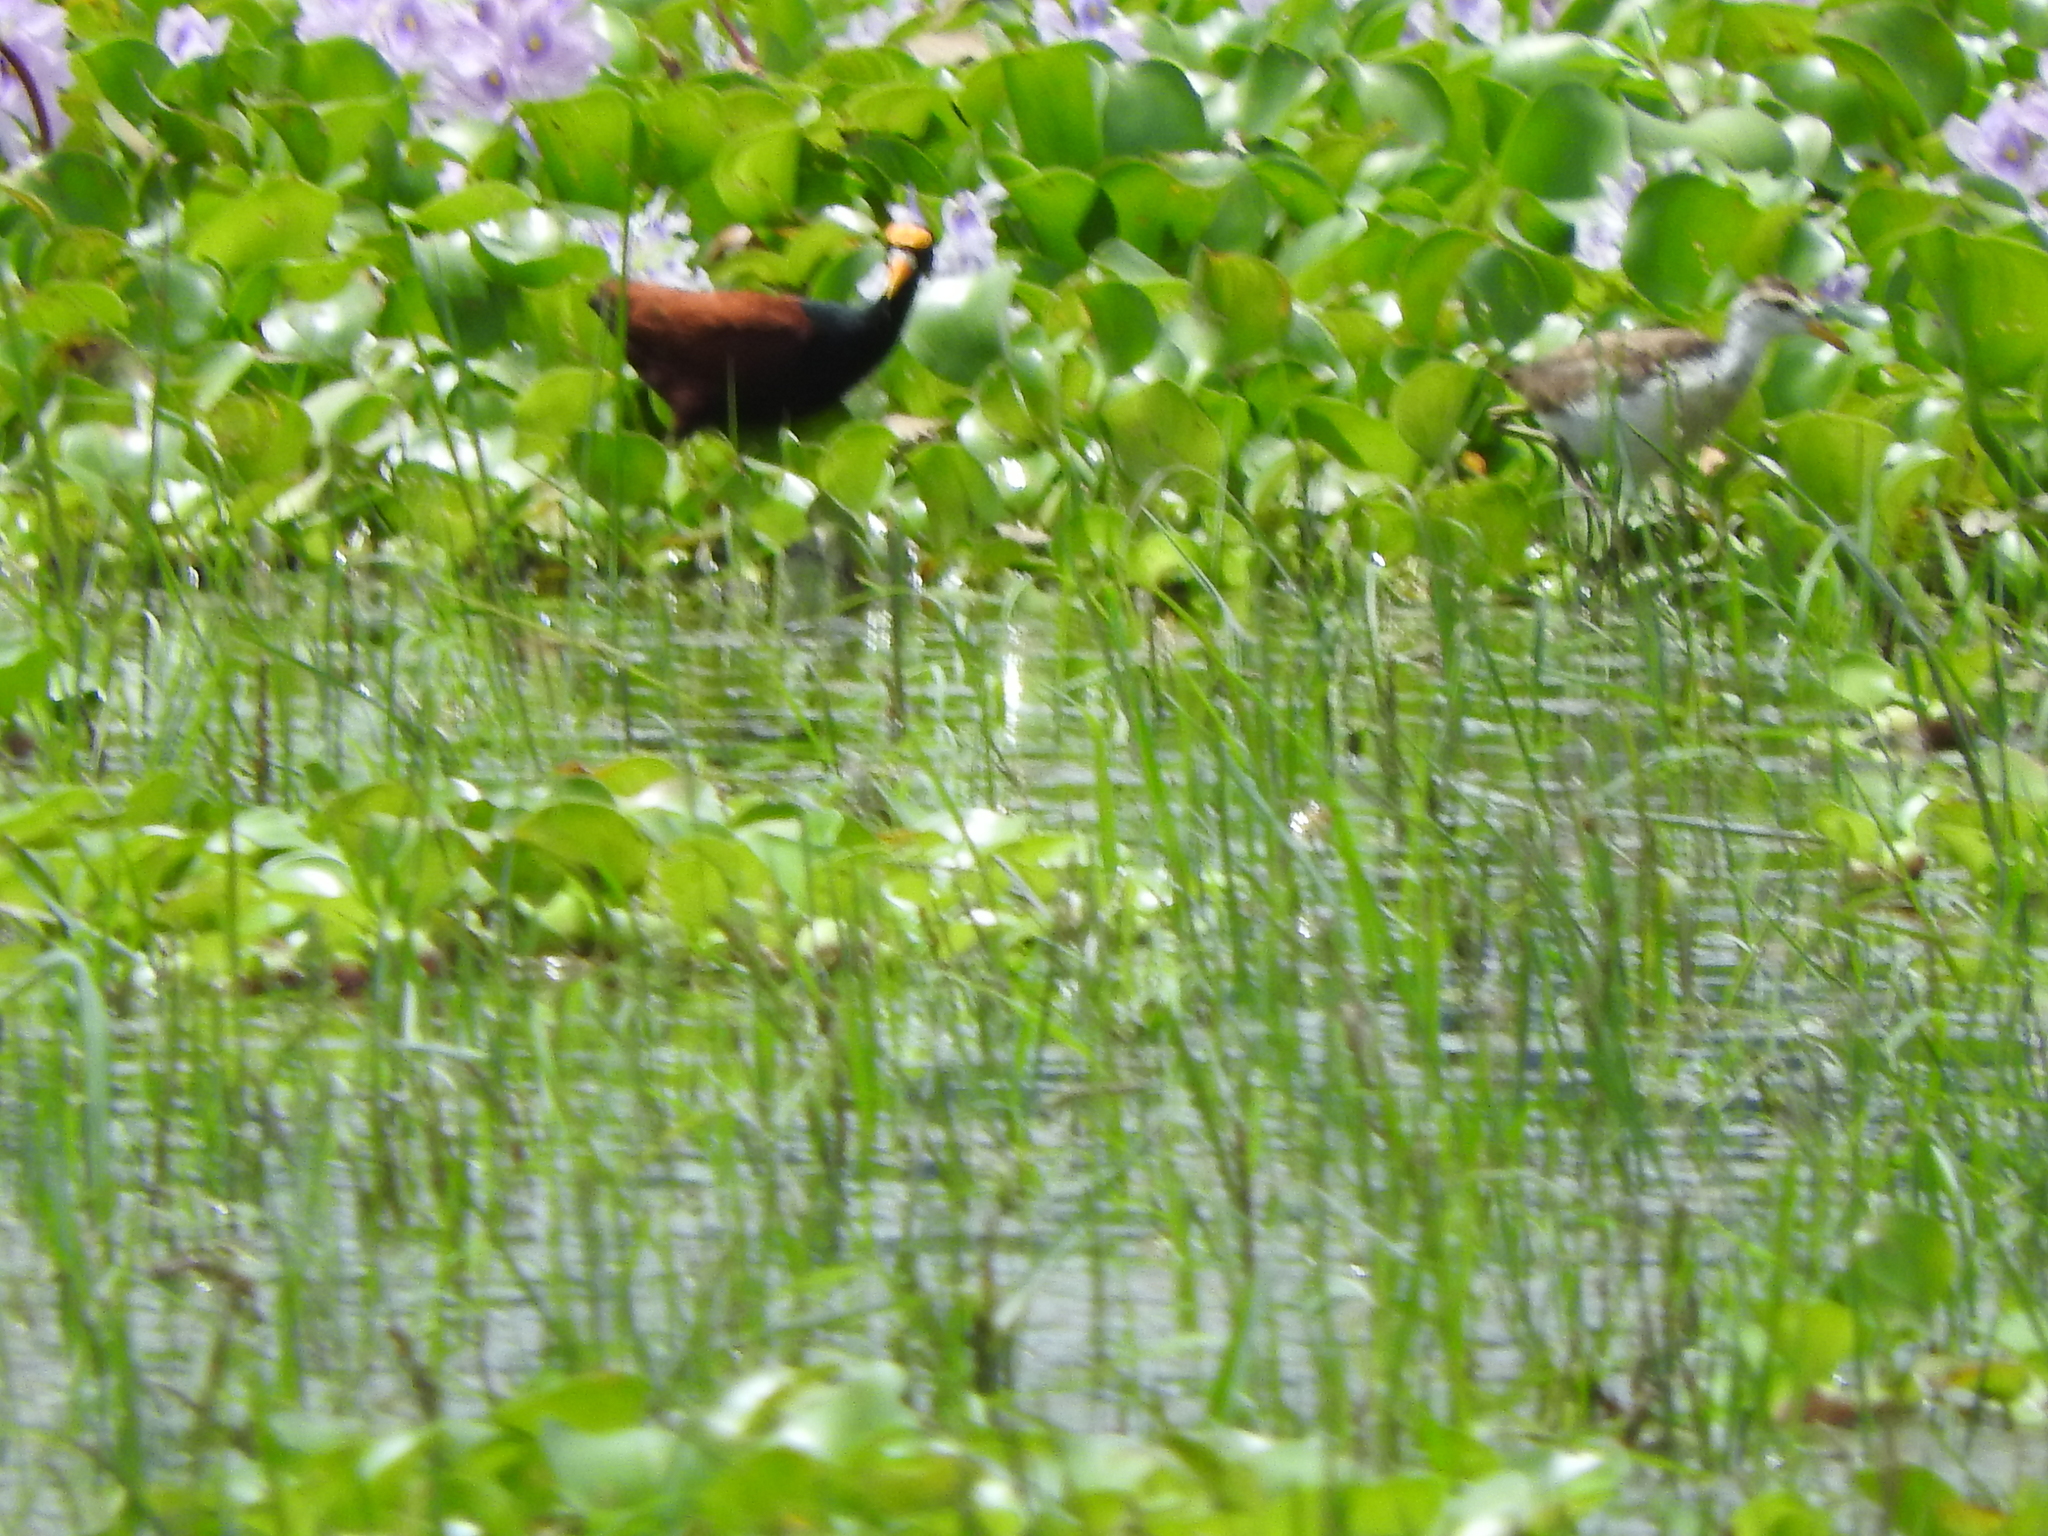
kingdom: Animalia
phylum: Chordata
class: Aves
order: Charadriiformes
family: Jacanidae
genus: Jacana
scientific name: Jacana spinosa
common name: Northern jacana
